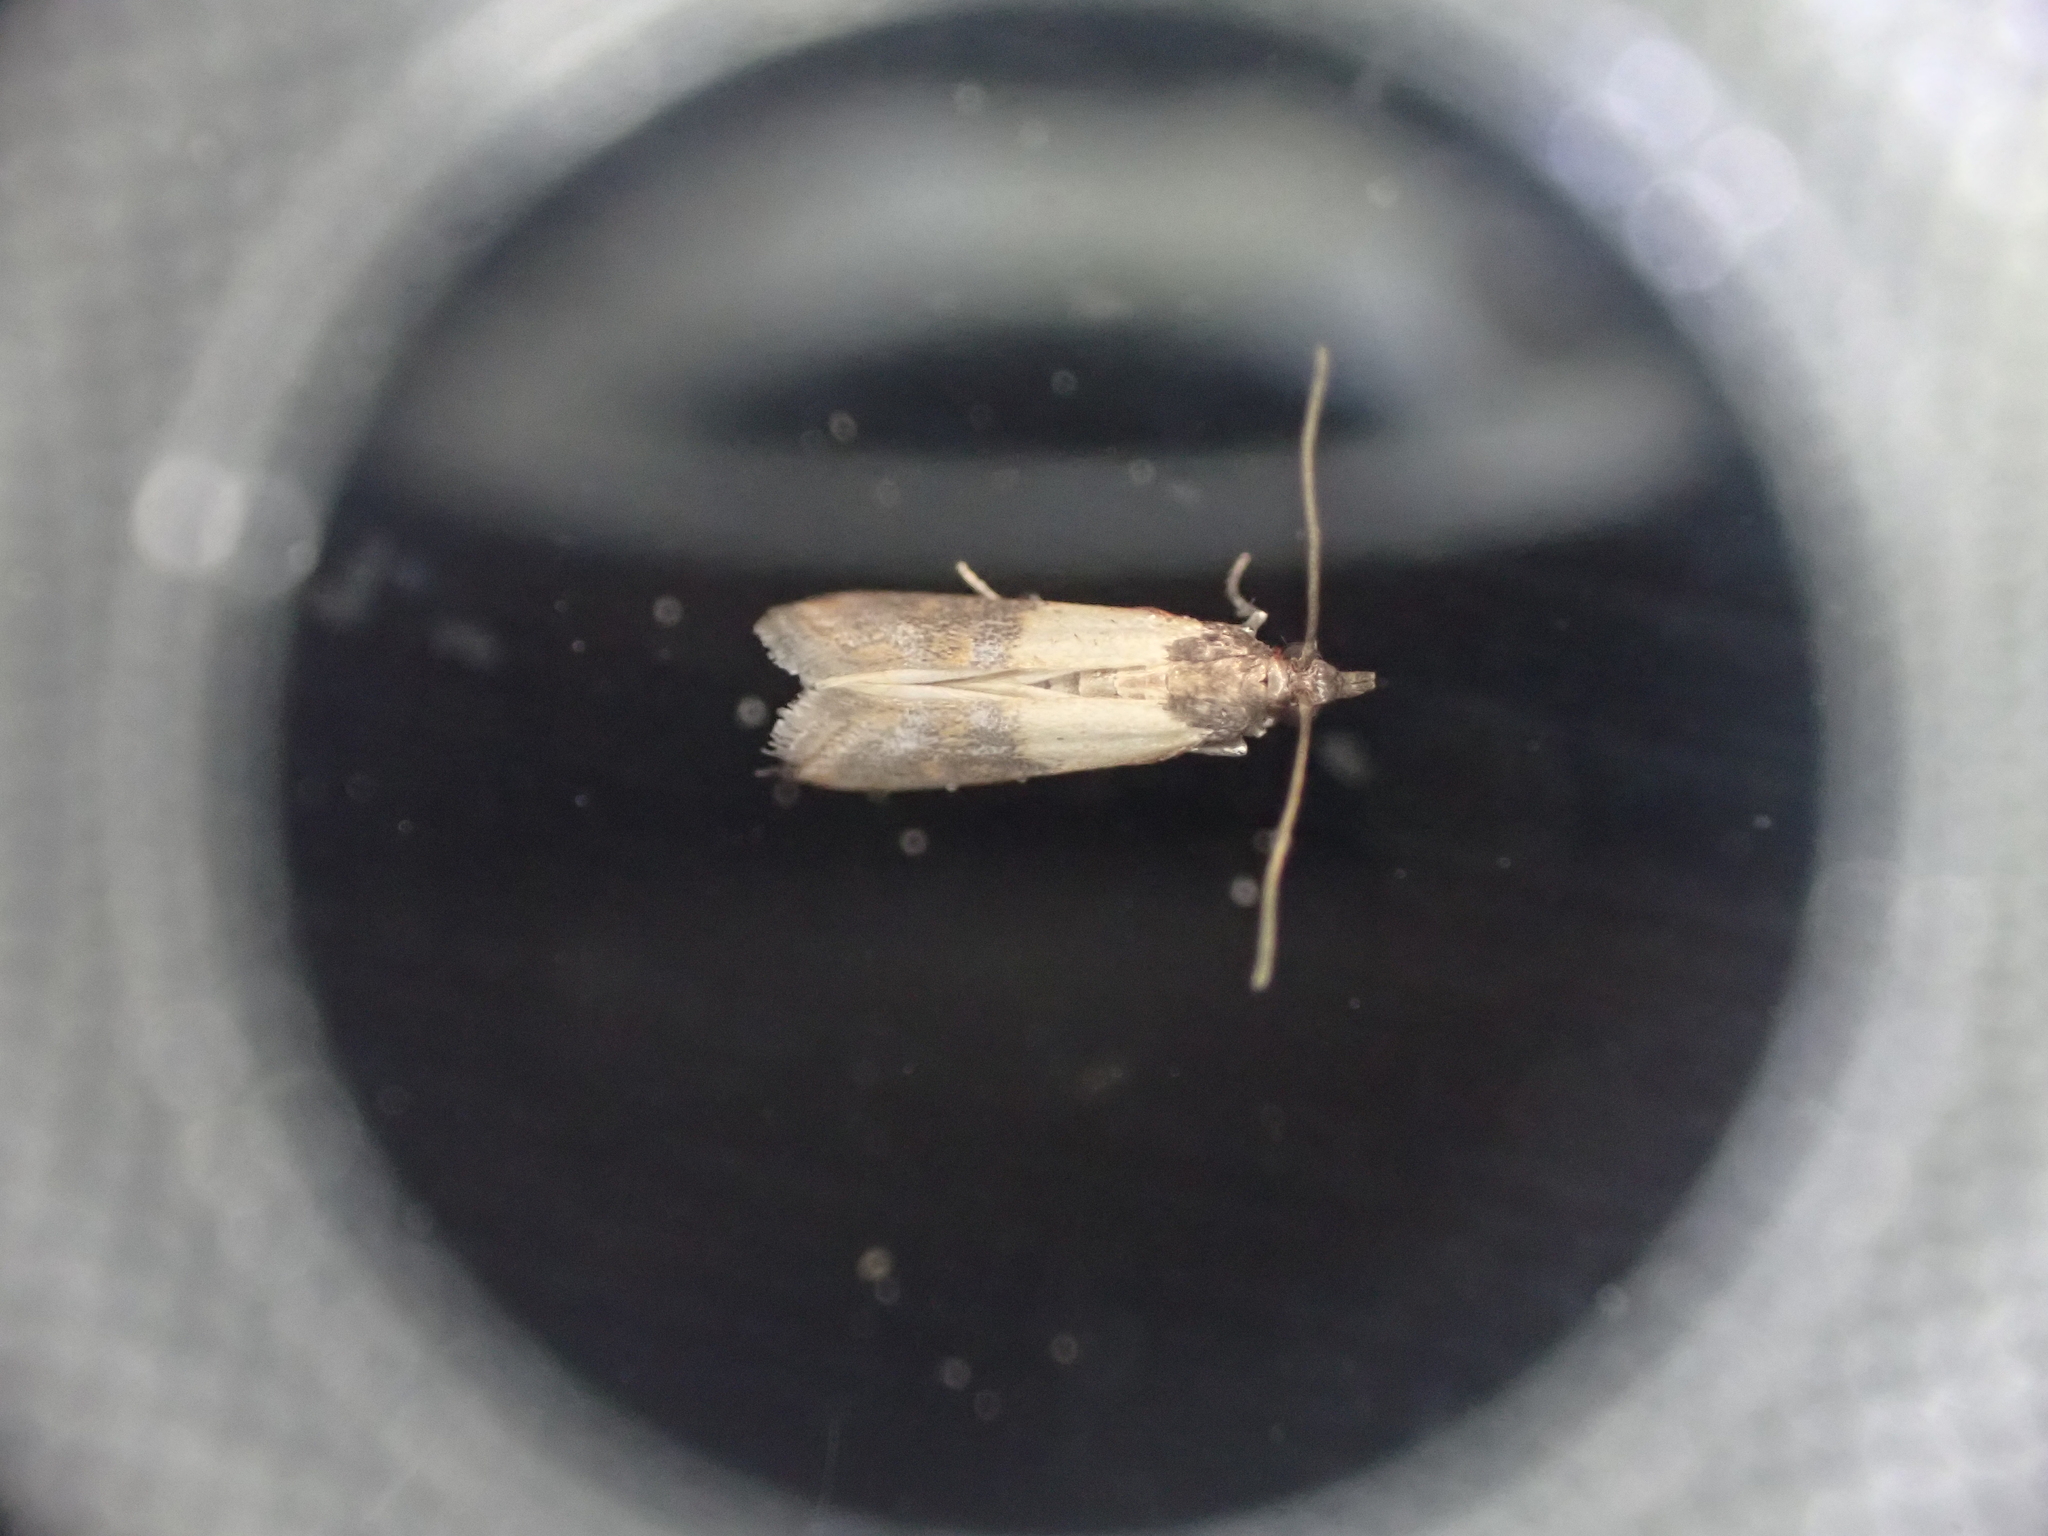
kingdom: Animalia
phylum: Arthropoda
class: Insecta
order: Lepidoptera
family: Pyralidae
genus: Plodia
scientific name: Plodia interpunctella
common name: Indian meal moth
